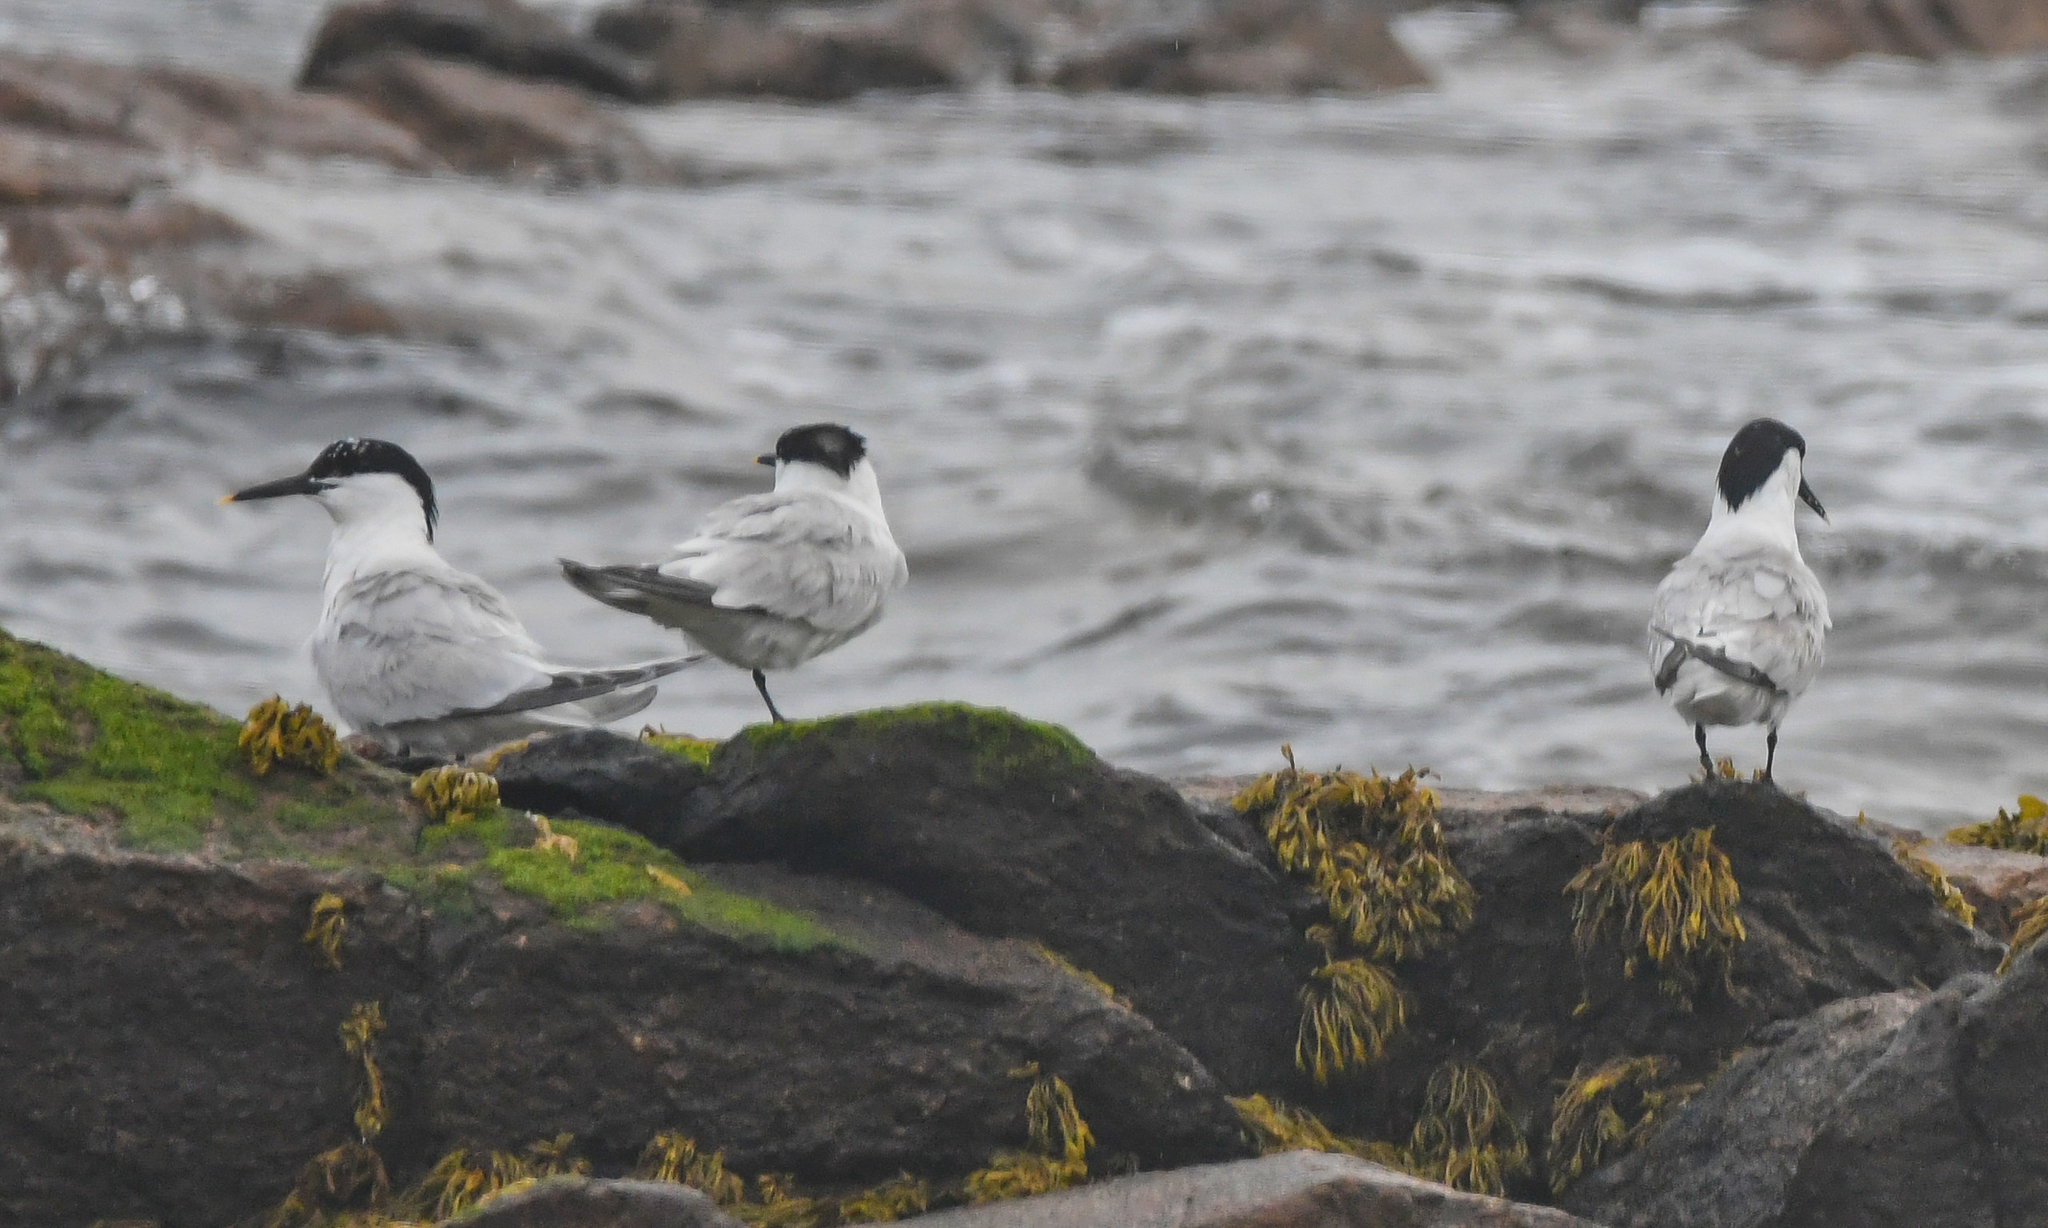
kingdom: Animalia
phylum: Chordata
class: Aves
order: Charadriiformes
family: Laridae
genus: Thalasseus
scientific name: Thalasseus sandvicensis
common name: Sandwich tern
